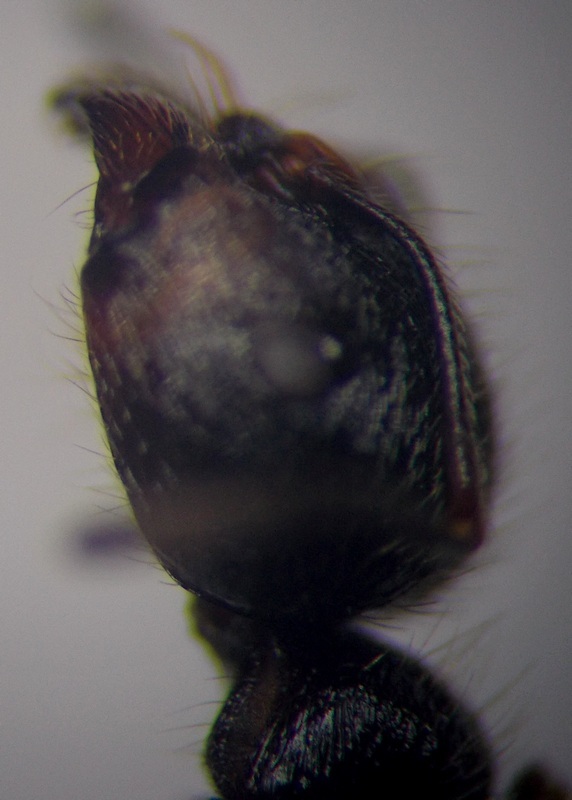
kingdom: Animalia
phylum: Arthropoda
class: Insecta
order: Hymenoptera
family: Formicidae
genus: Messor
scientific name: Messor structor
